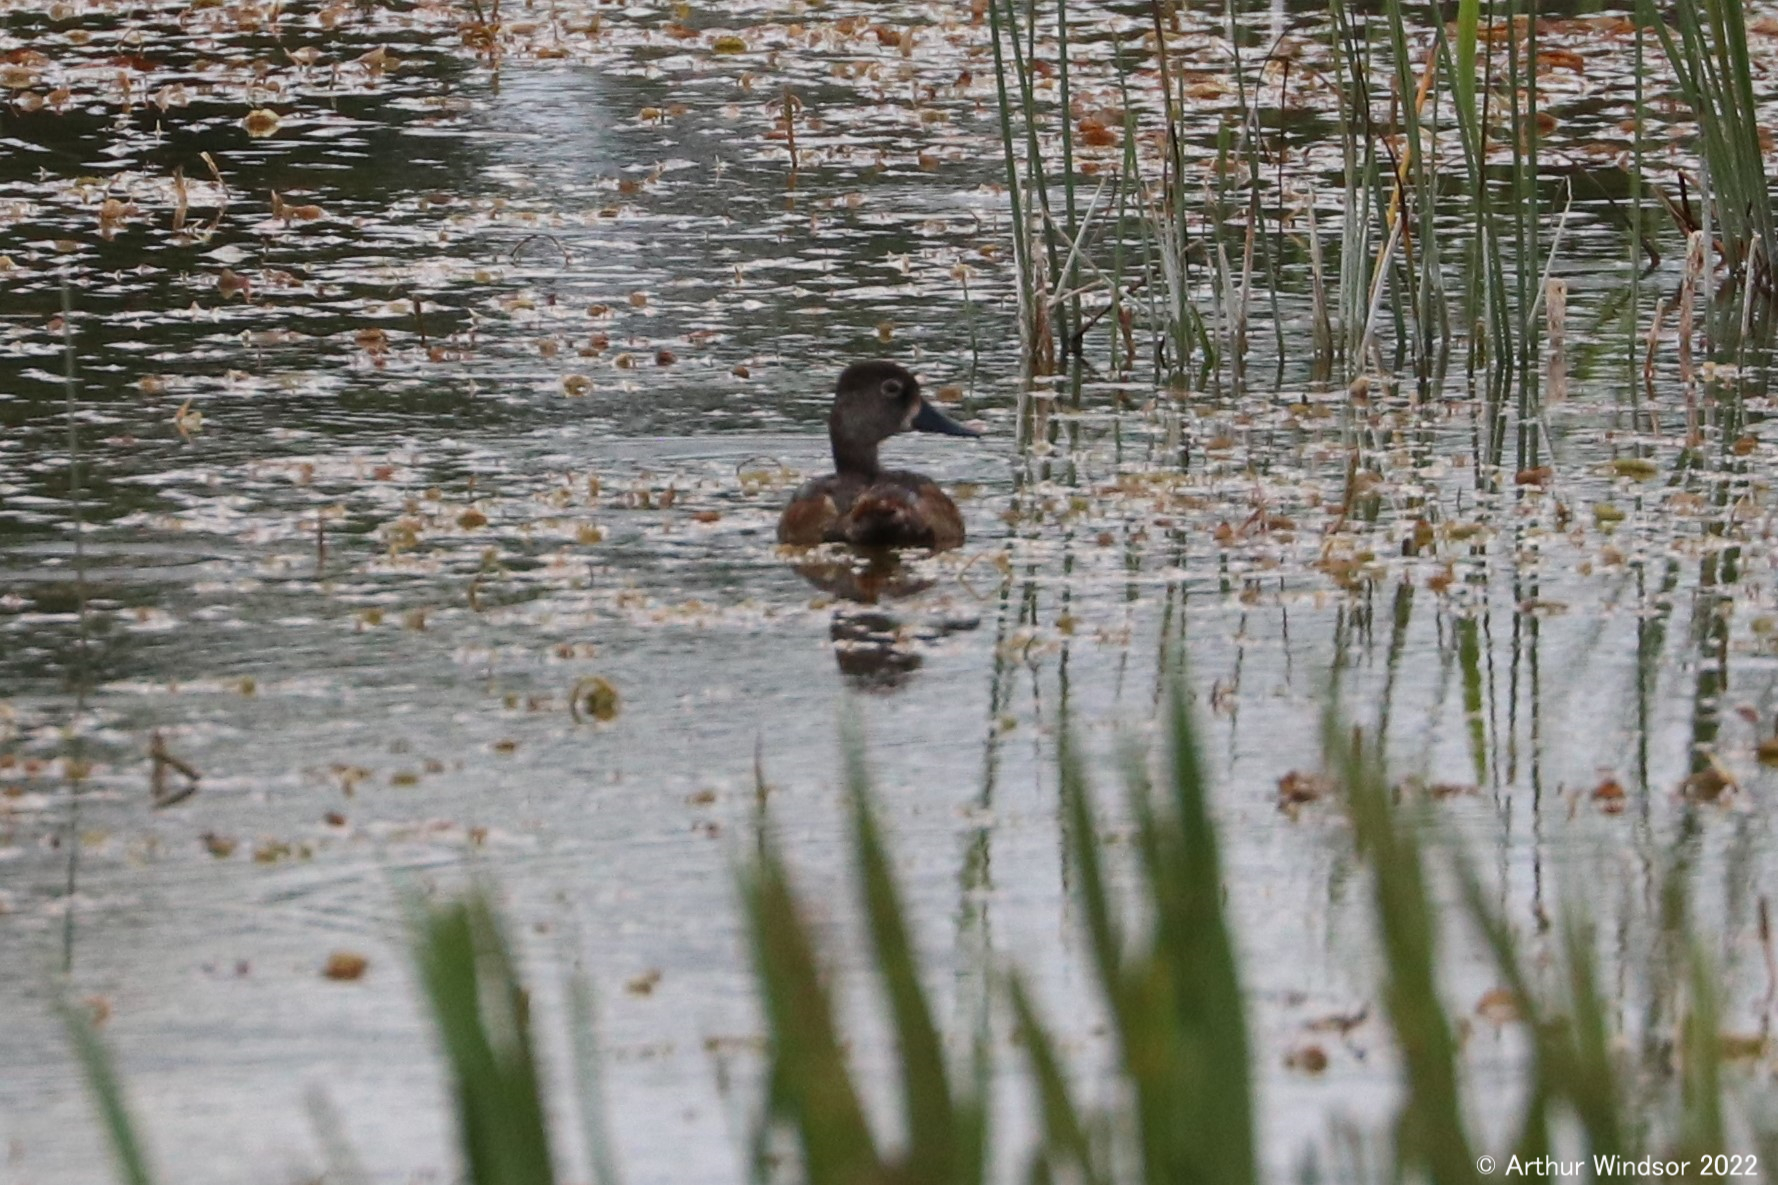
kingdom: Animalia
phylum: Chordata
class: Aves
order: Anseriformes
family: Anatidae
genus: Aythya
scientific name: Aythya collaris
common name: Ring-necked duck
